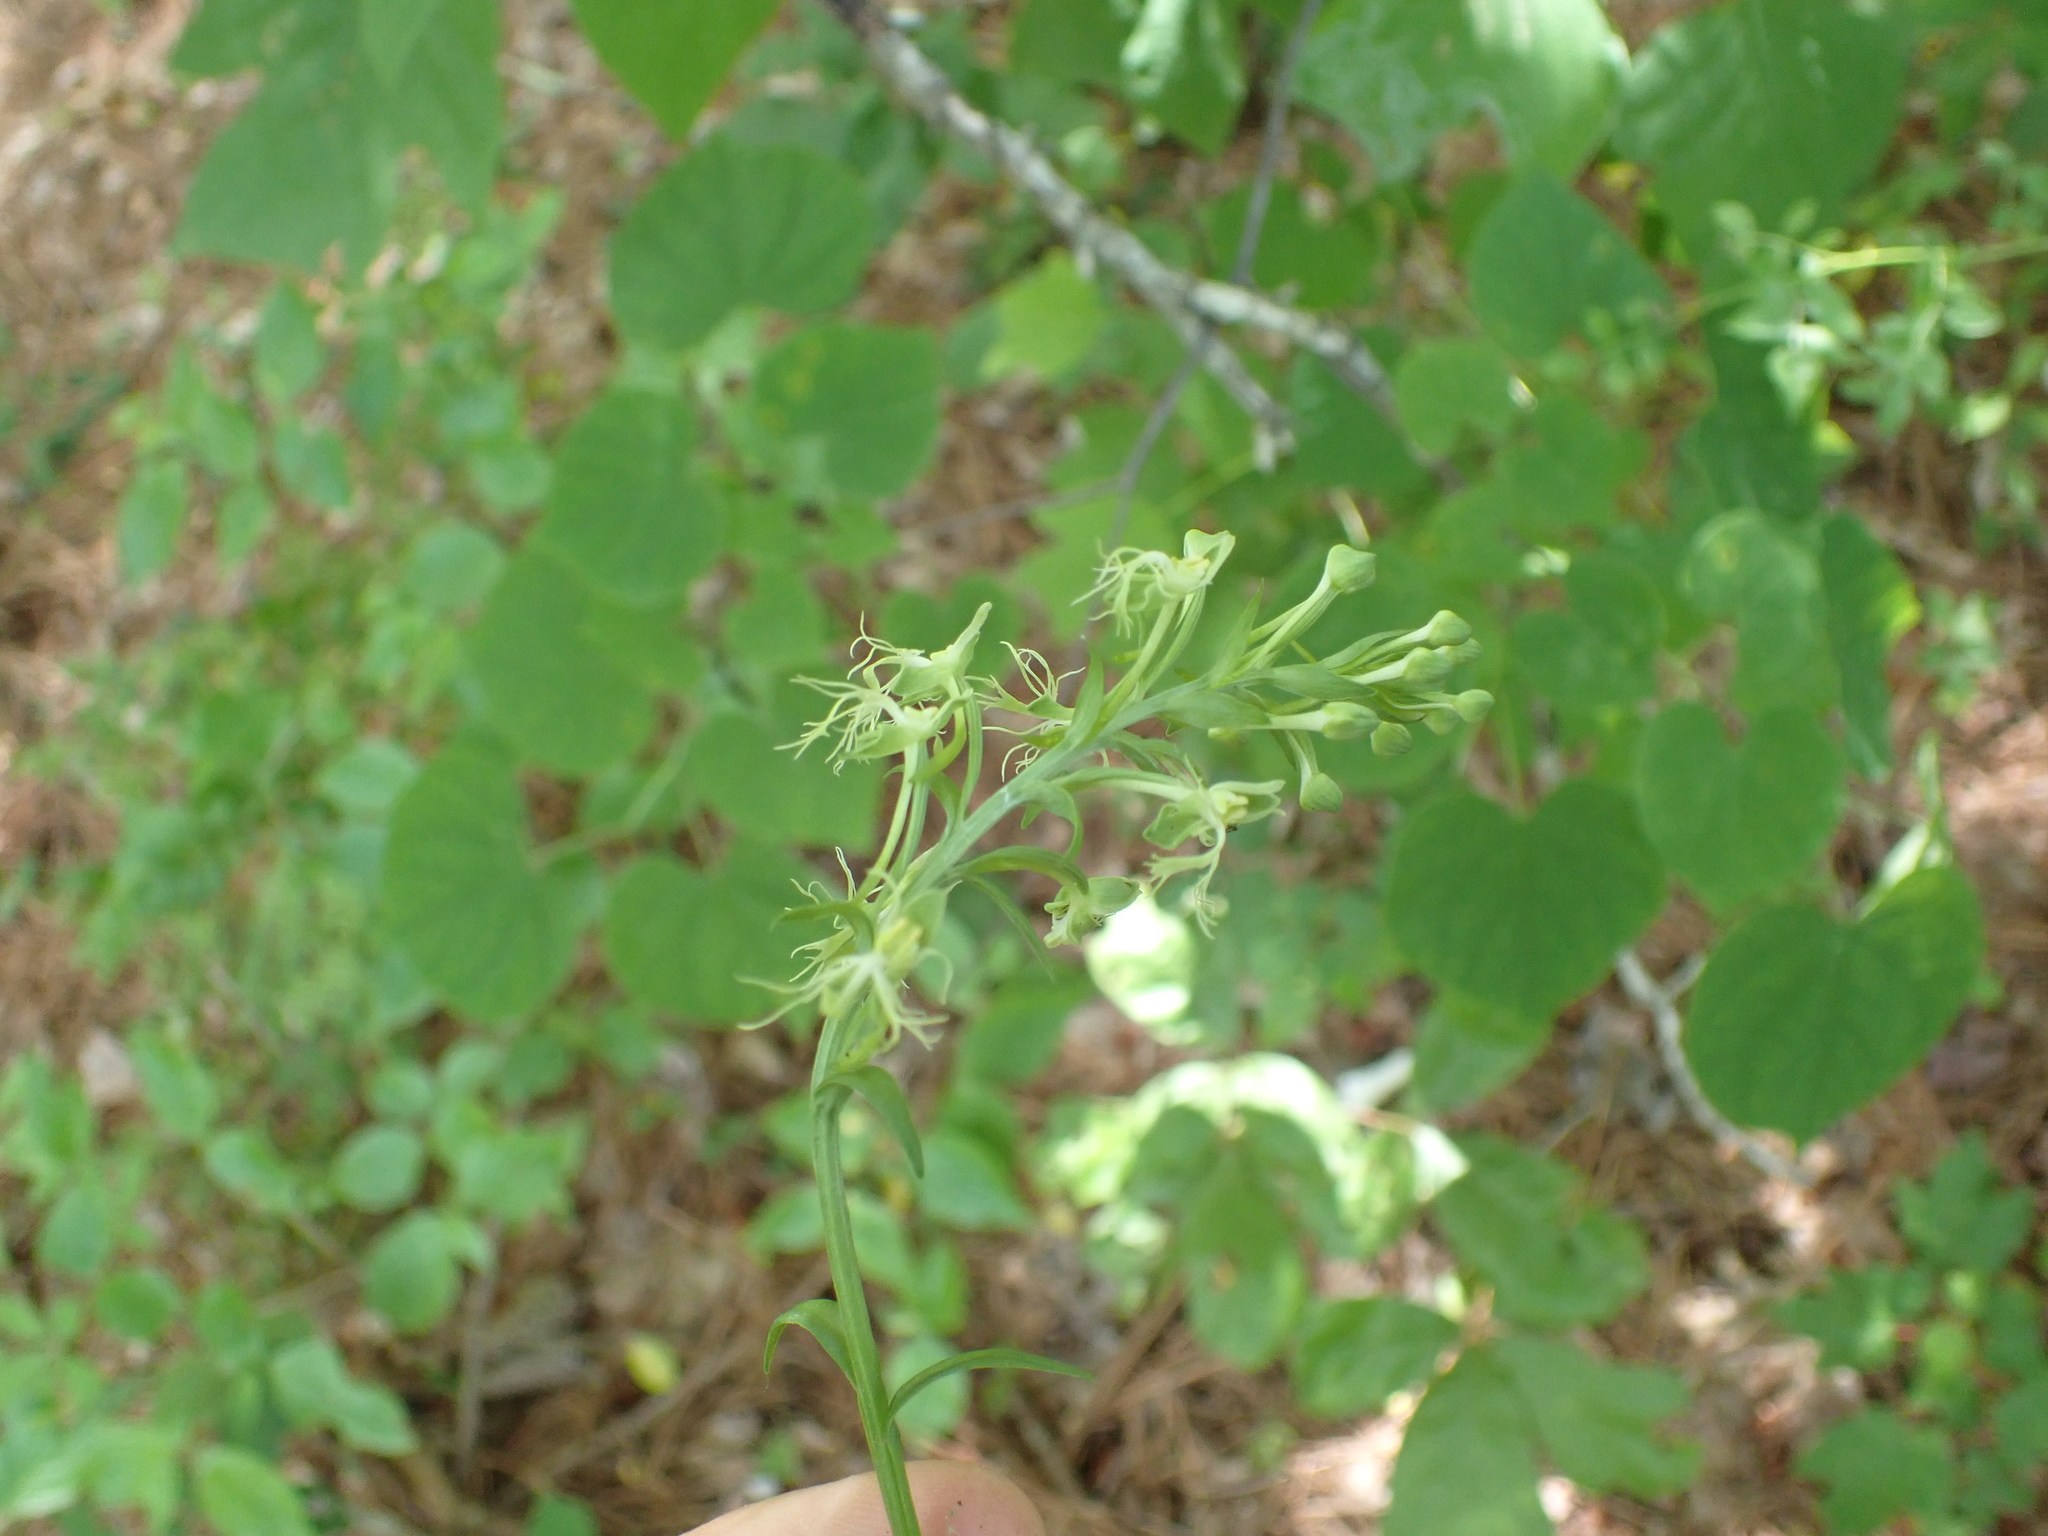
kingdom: Plantae
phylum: Tracheophyta
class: Liliopsida
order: Asparagales
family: Orchidaceae
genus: Platanthera
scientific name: Platanthera lacera
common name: Green fringed orchid
